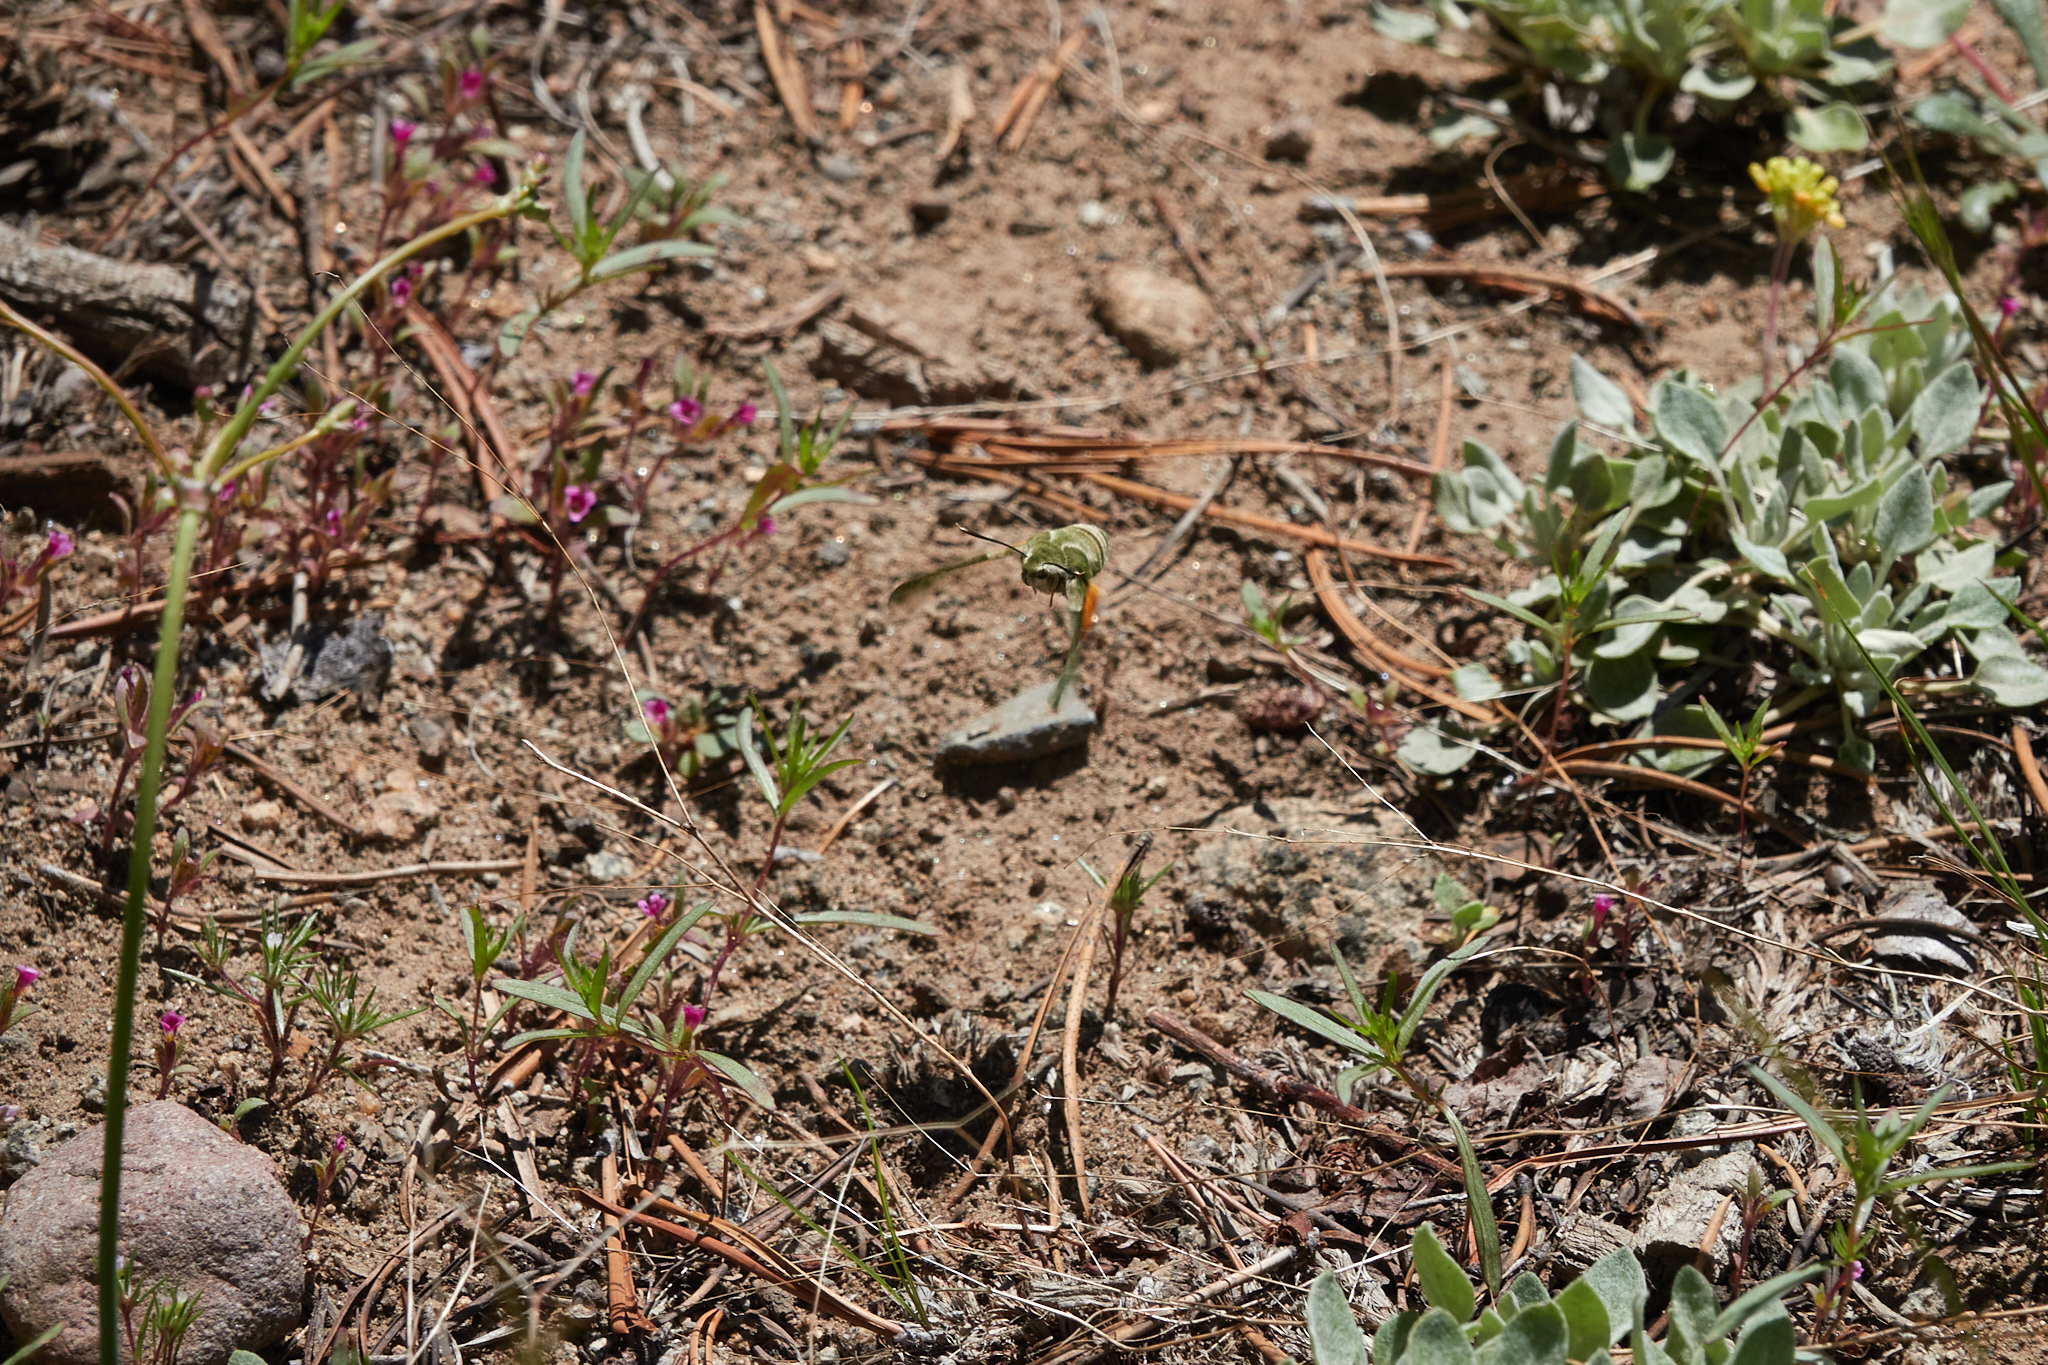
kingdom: Animalia
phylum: Arthropoda
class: Insecta
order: Lepidoptera
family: Sphingidae
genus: Proserpinus
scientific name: Proserpinus clarkiae
